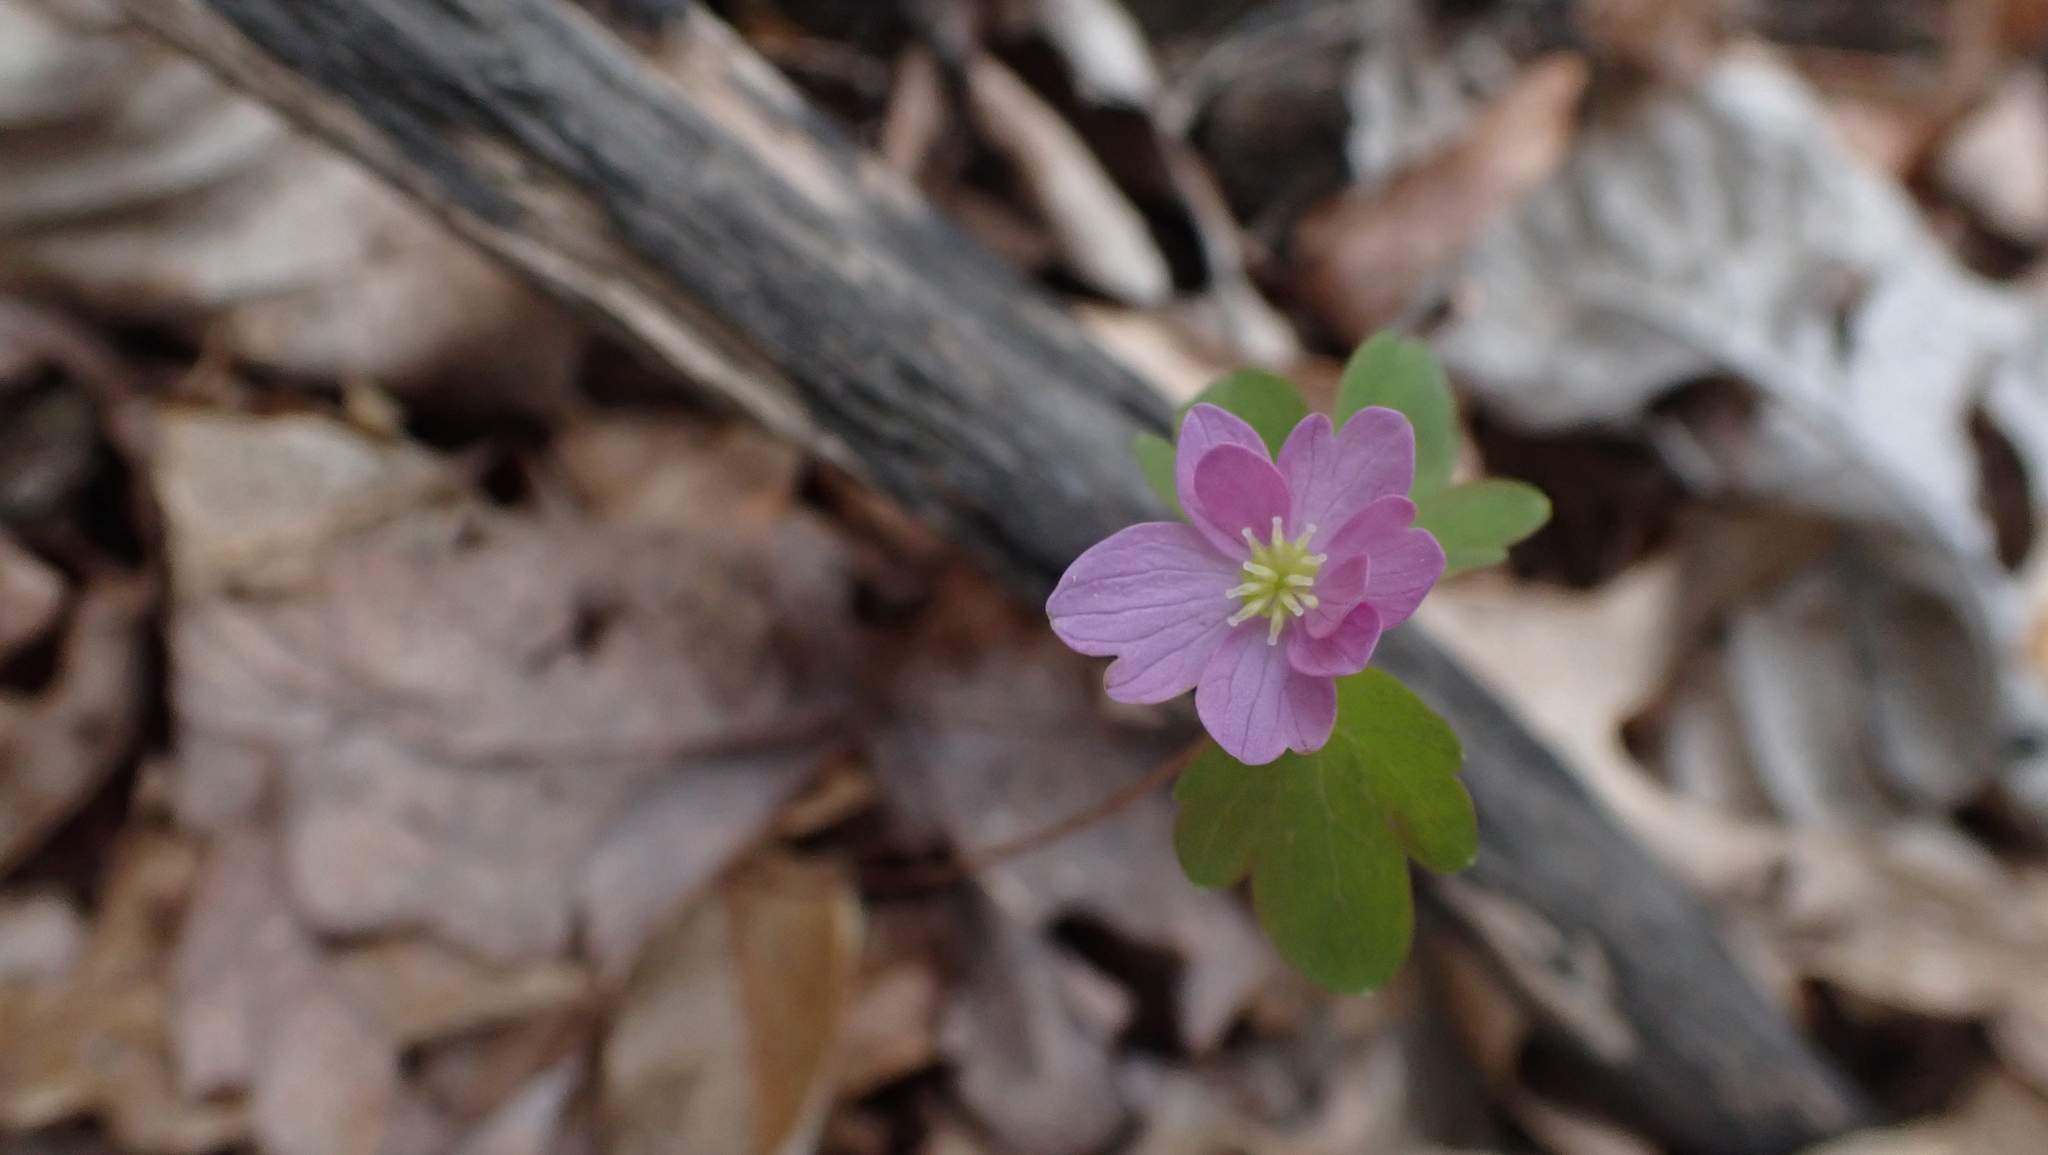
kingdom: Plantae
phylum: Tracheophyta
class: Magnoliopsida
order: Ranunculales
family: Ranunculaceae
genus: Thalictrum
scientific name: Thalictrum thalictroides
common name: Rue-anemone
